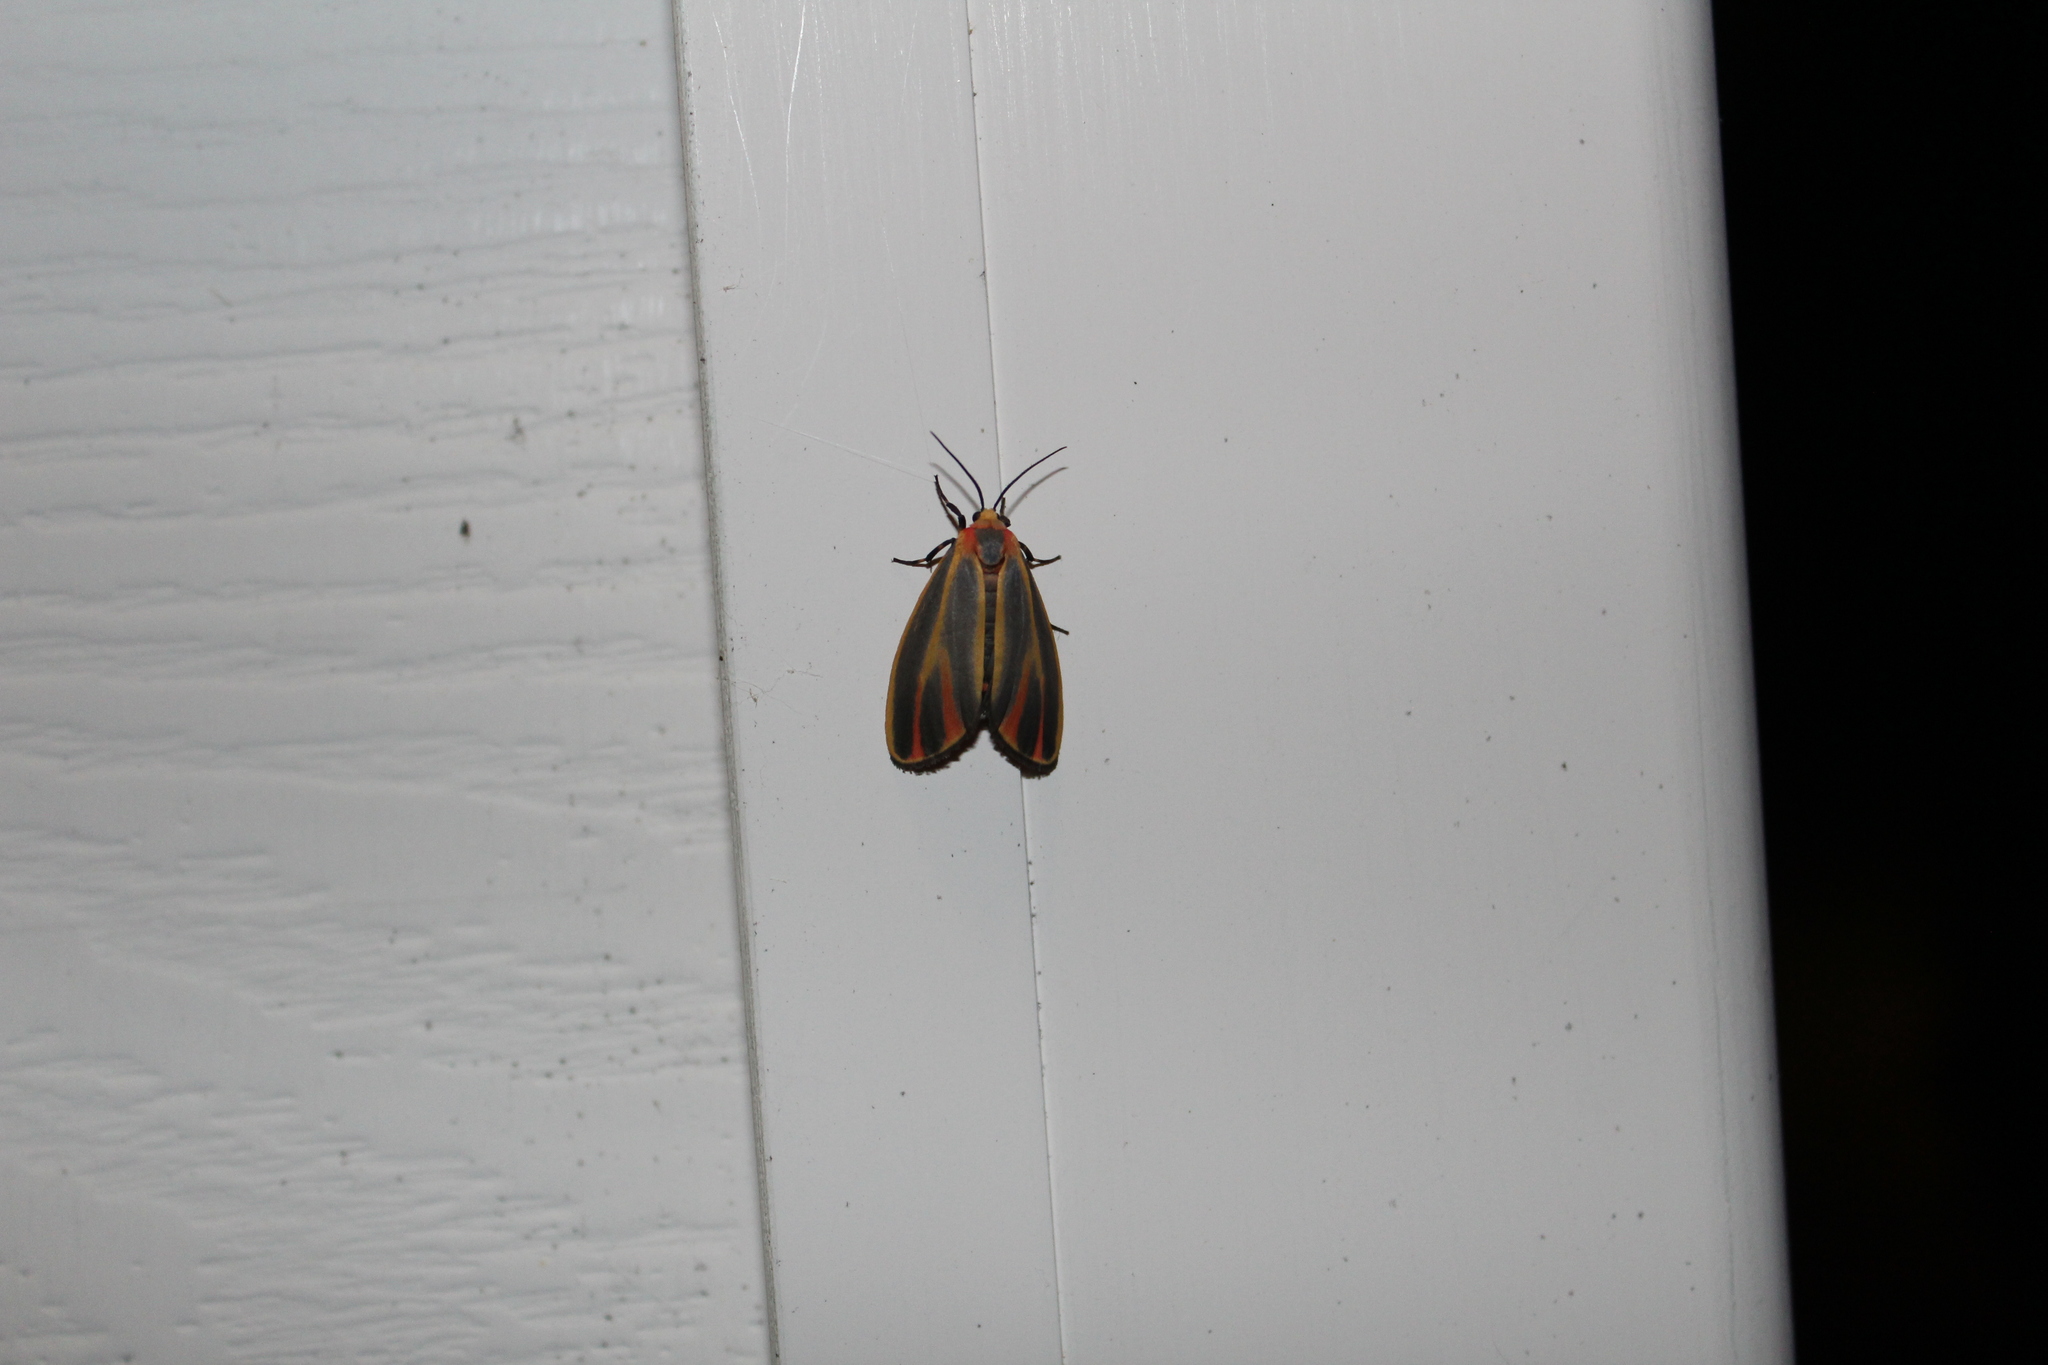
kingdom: Animalia
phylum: Arthropoda
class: Insecta
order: Lepidoptera
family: Erebidae
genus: Hypoprepia
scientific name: Hypoprepia fucosa
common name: Painted lichen moth
